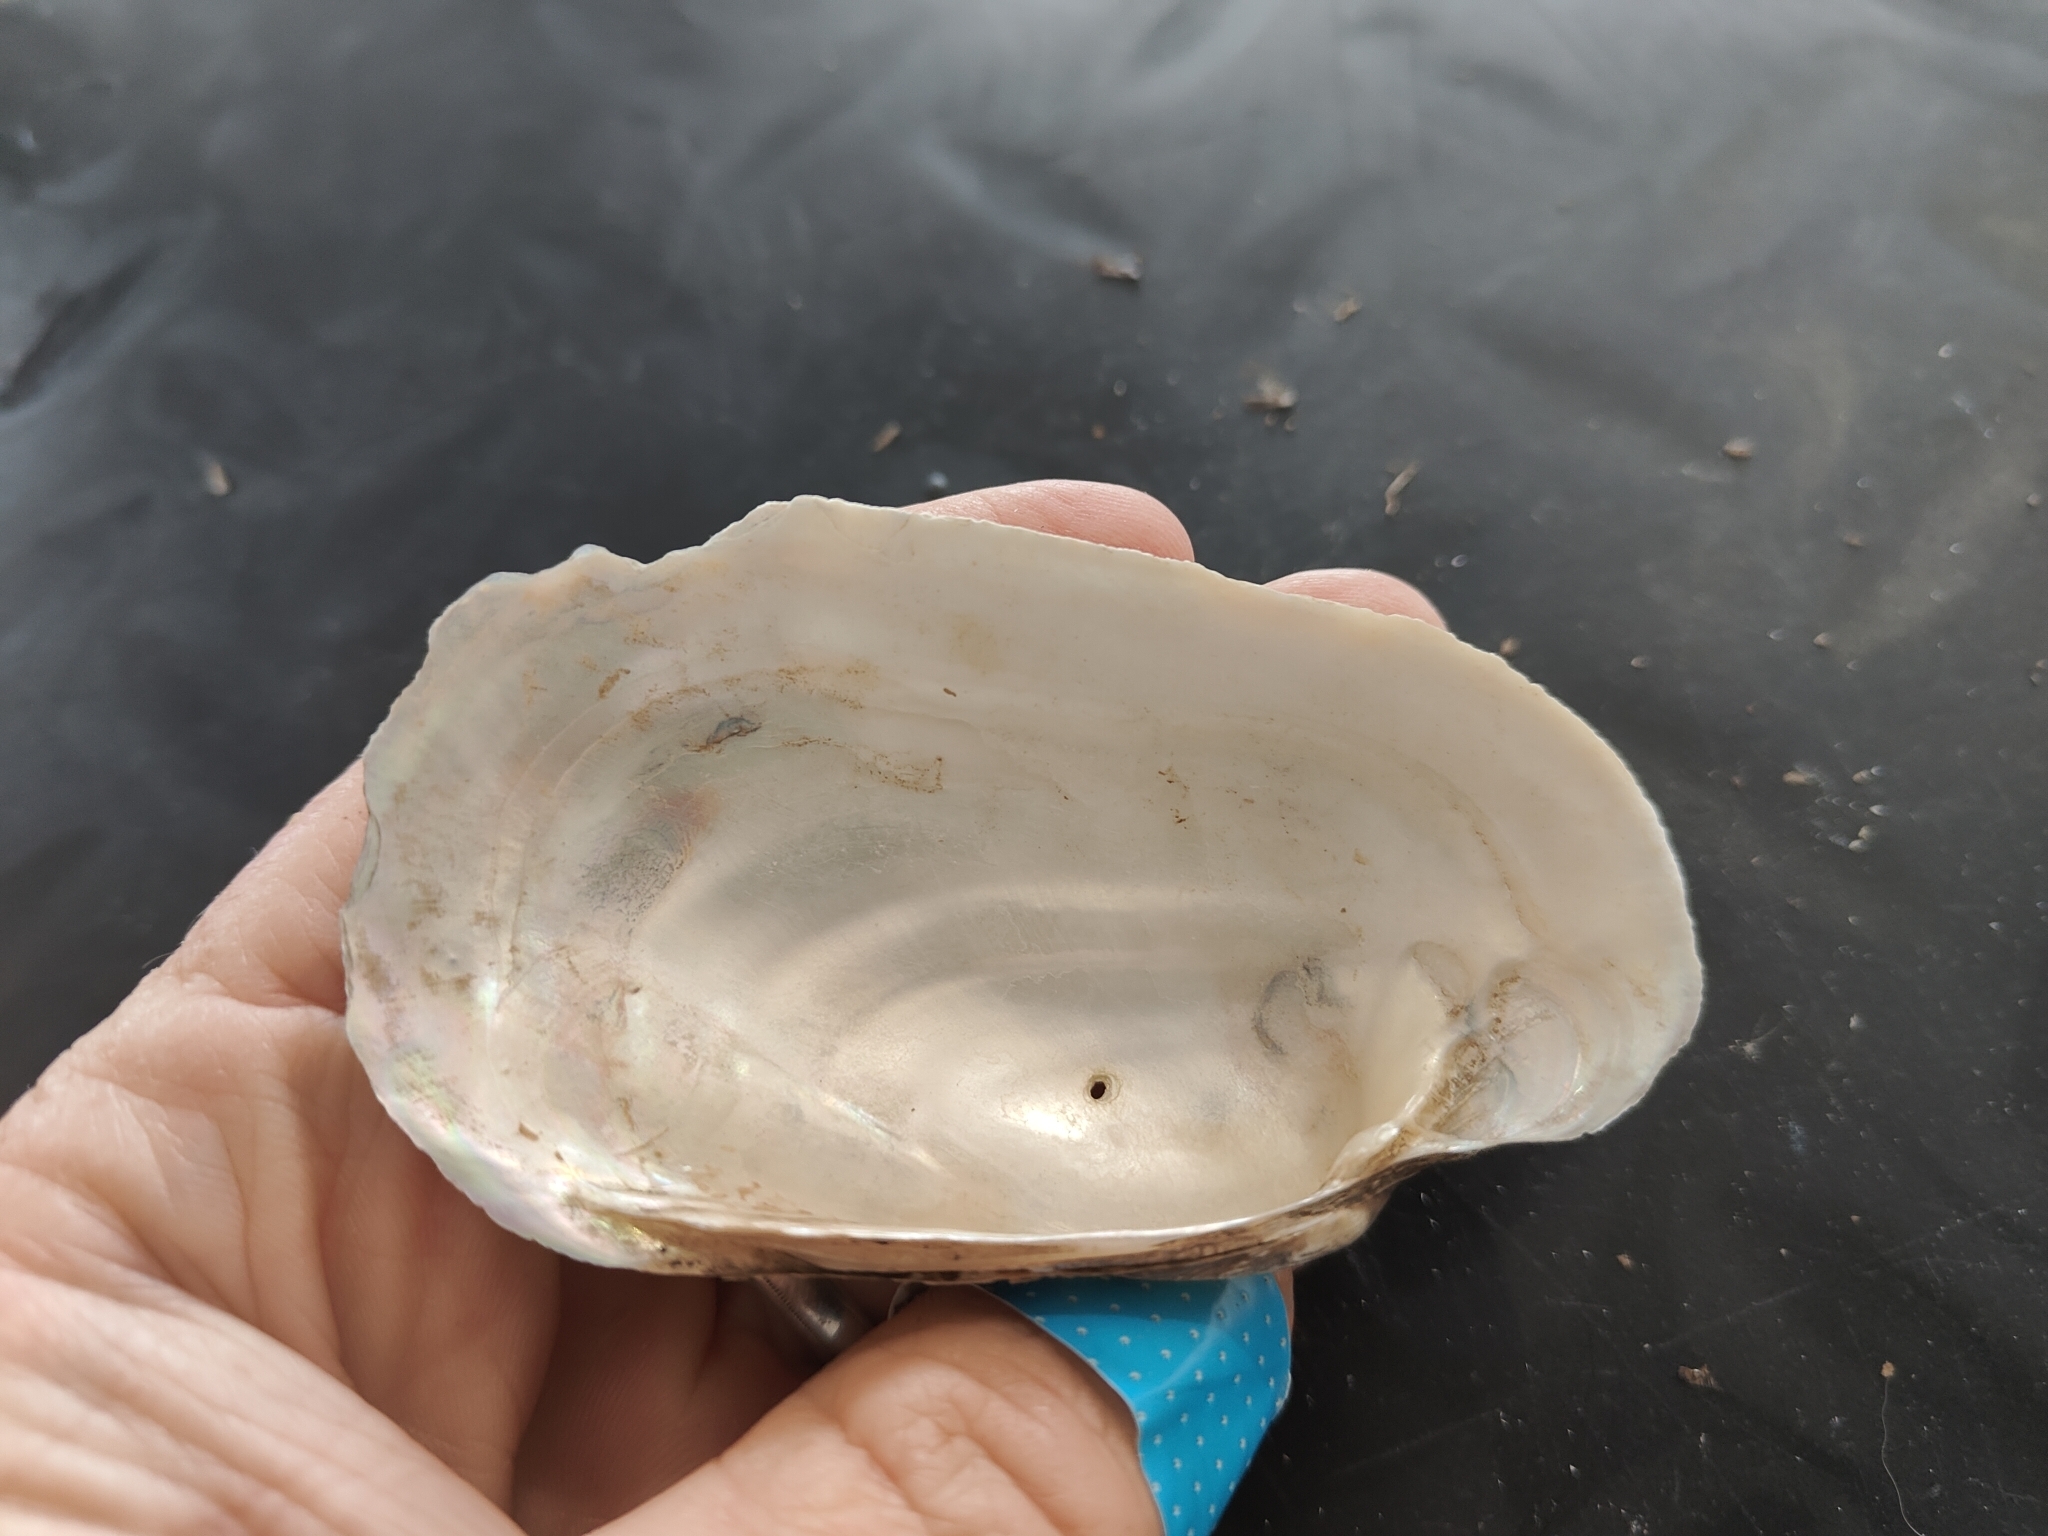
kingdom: Animalia
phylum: Mollusca
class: Bivalvia
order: Unionida
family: Unionidae
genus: Lampsilis
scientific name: Lampsilis siliquoidea
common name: Fatmucket
